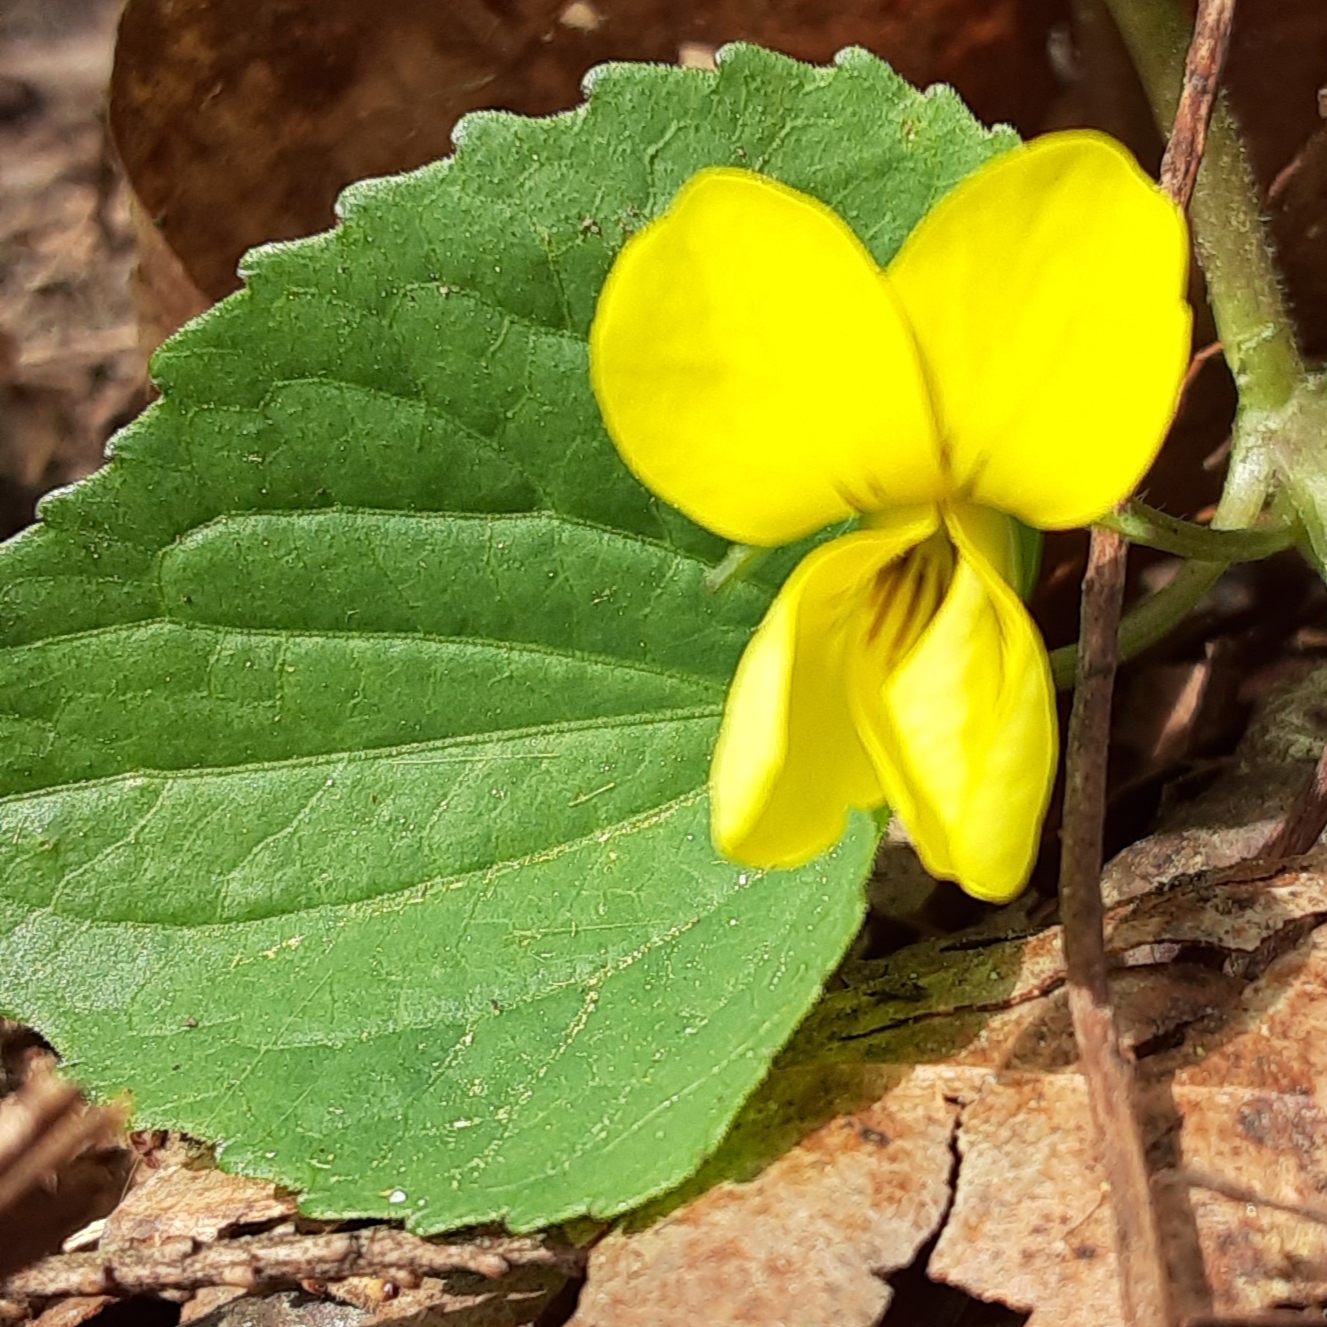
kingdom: Plantae
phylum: Tracheophyta
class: Magnoliopsida
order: Malpighiales
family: Violaceae
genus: Viola
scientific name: Viola eriocarpa
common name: Smooth yellow violet
